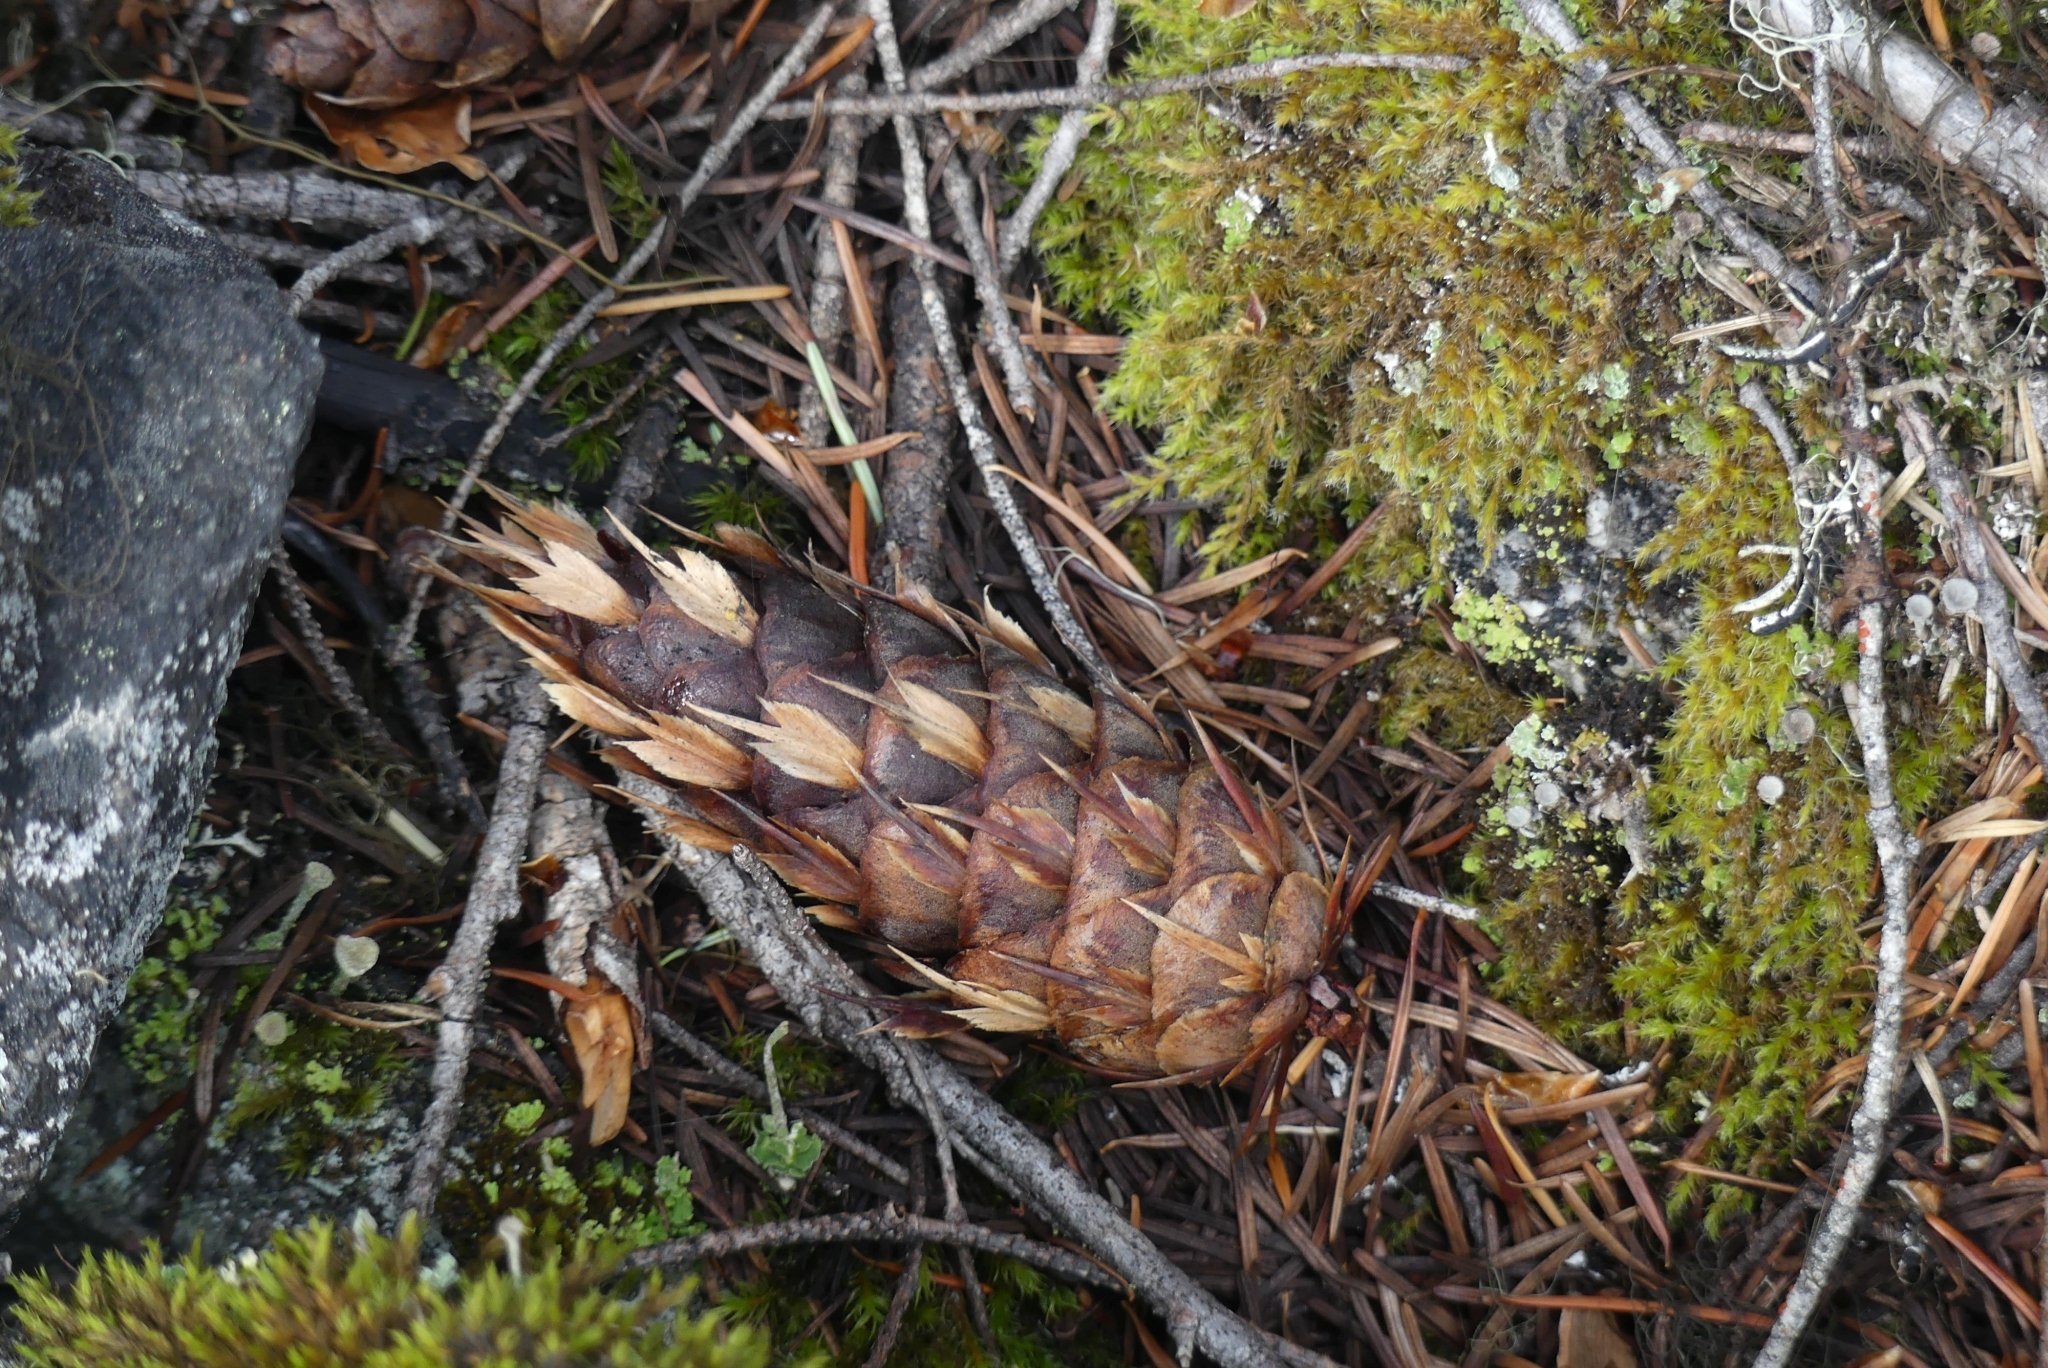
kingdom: Plantae
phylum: Tracheophyta
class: Pinopsida
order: Pinales
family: Pinaceae
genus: Pseudotsuga
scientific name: Pseudotsuga menziesii
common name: Douglas fir
